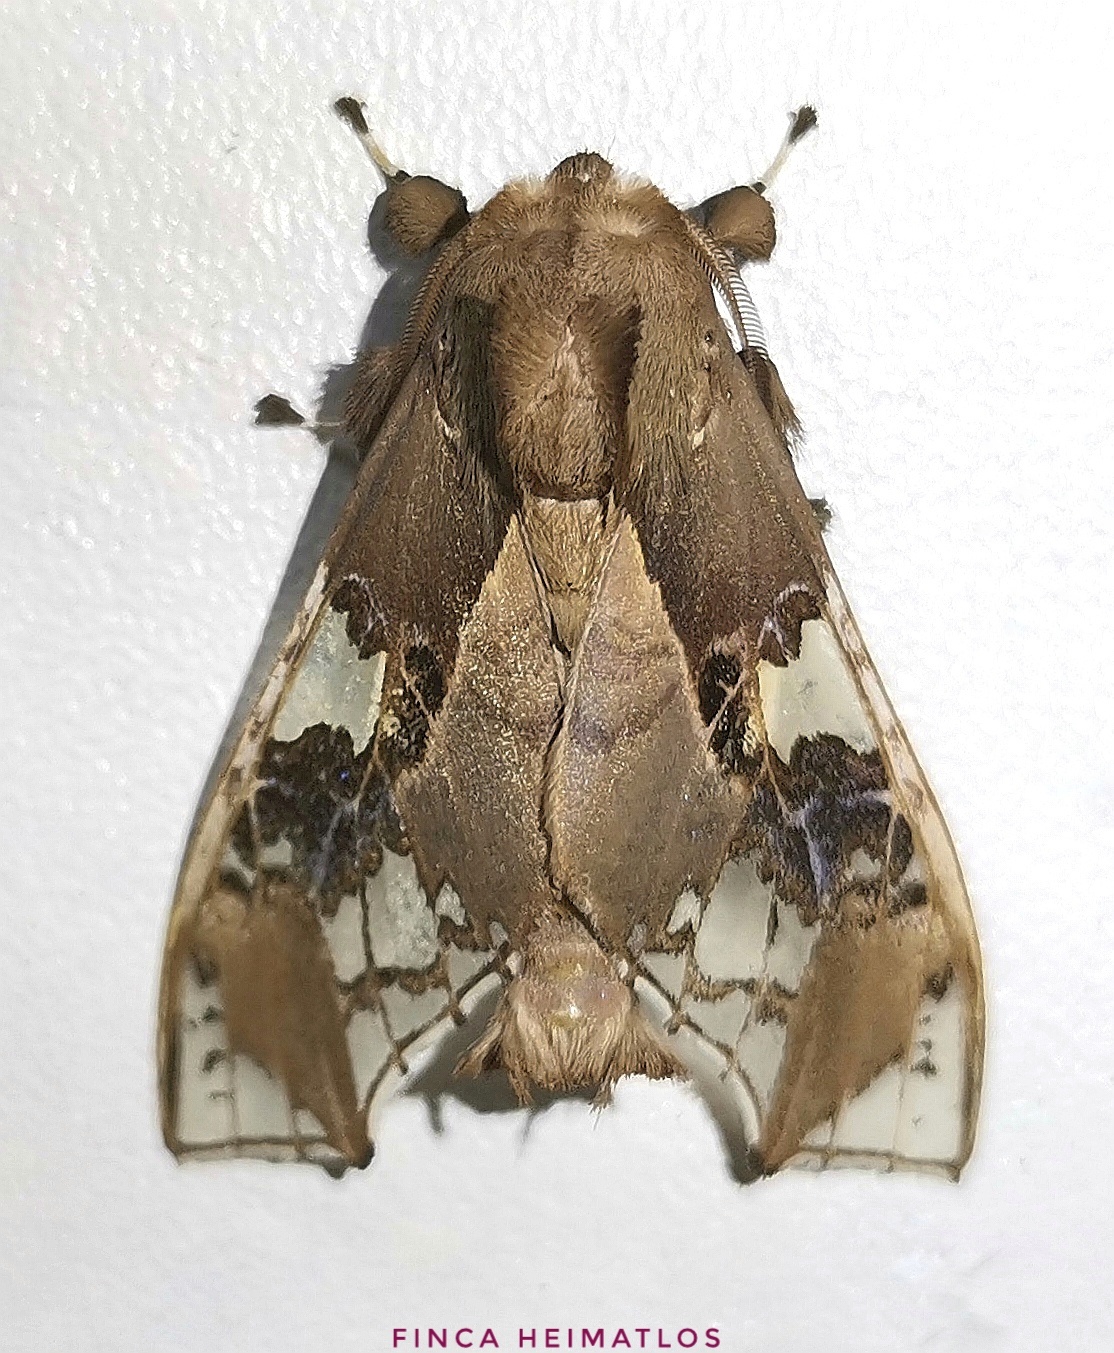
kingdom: Animalia
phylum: Arthropoda
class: Insecta
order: Lepidoptera
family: Erebidae
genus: Parathyris
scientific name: Parathyris cedonulli
